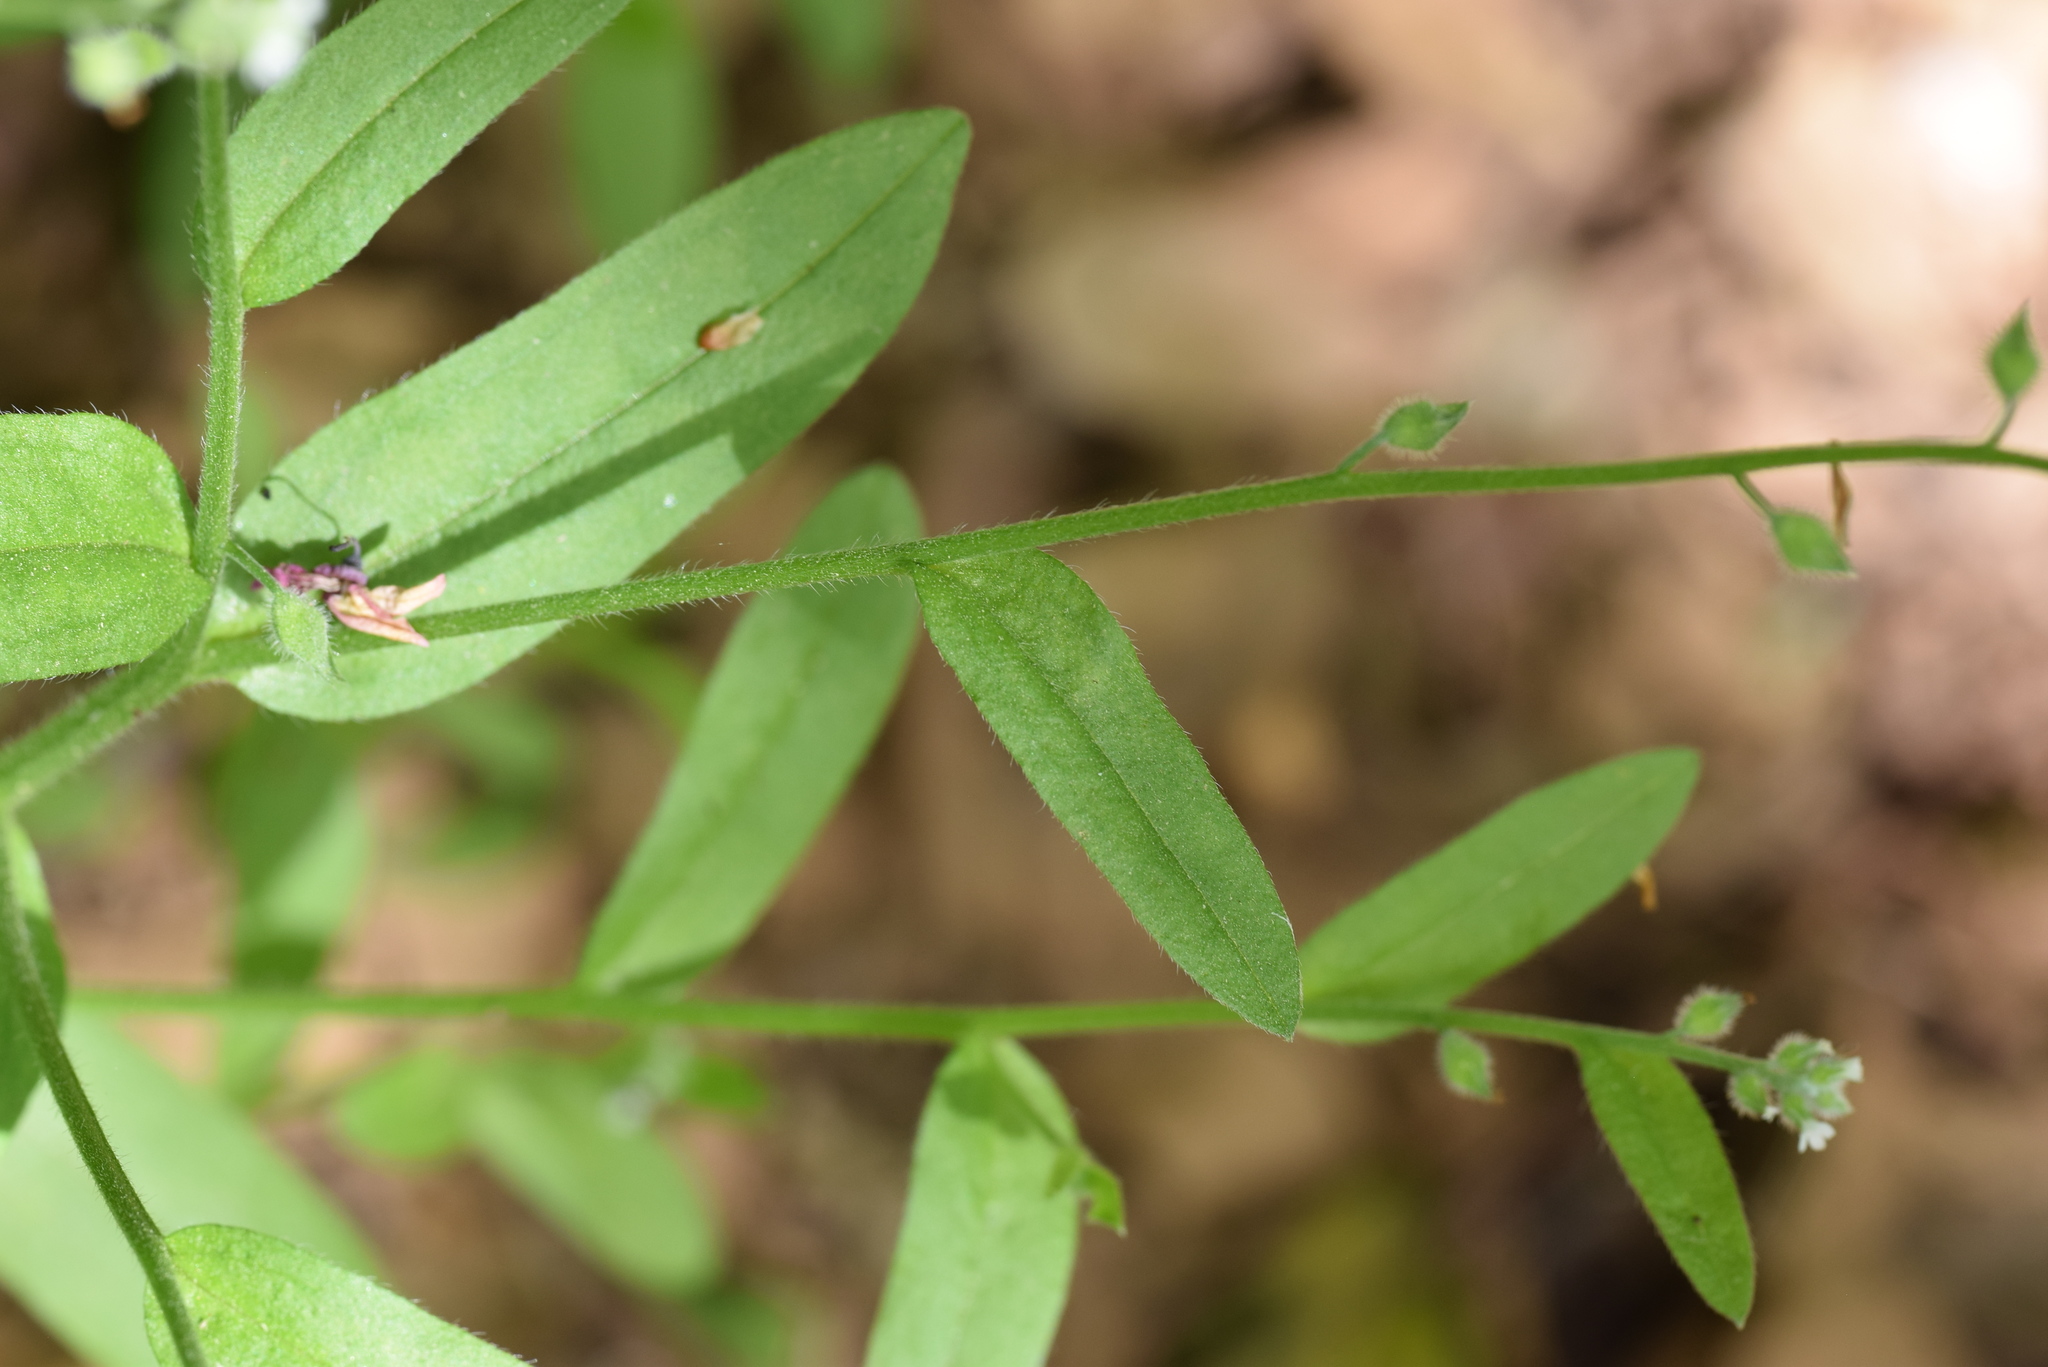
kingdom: Plantae
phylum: Tracheophyta
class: Magnoliopsida
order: Boraginales
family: Boraginaceae
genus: Myosotis
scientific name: Myosotis macrosperma
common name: Large-seed forget-me-not
